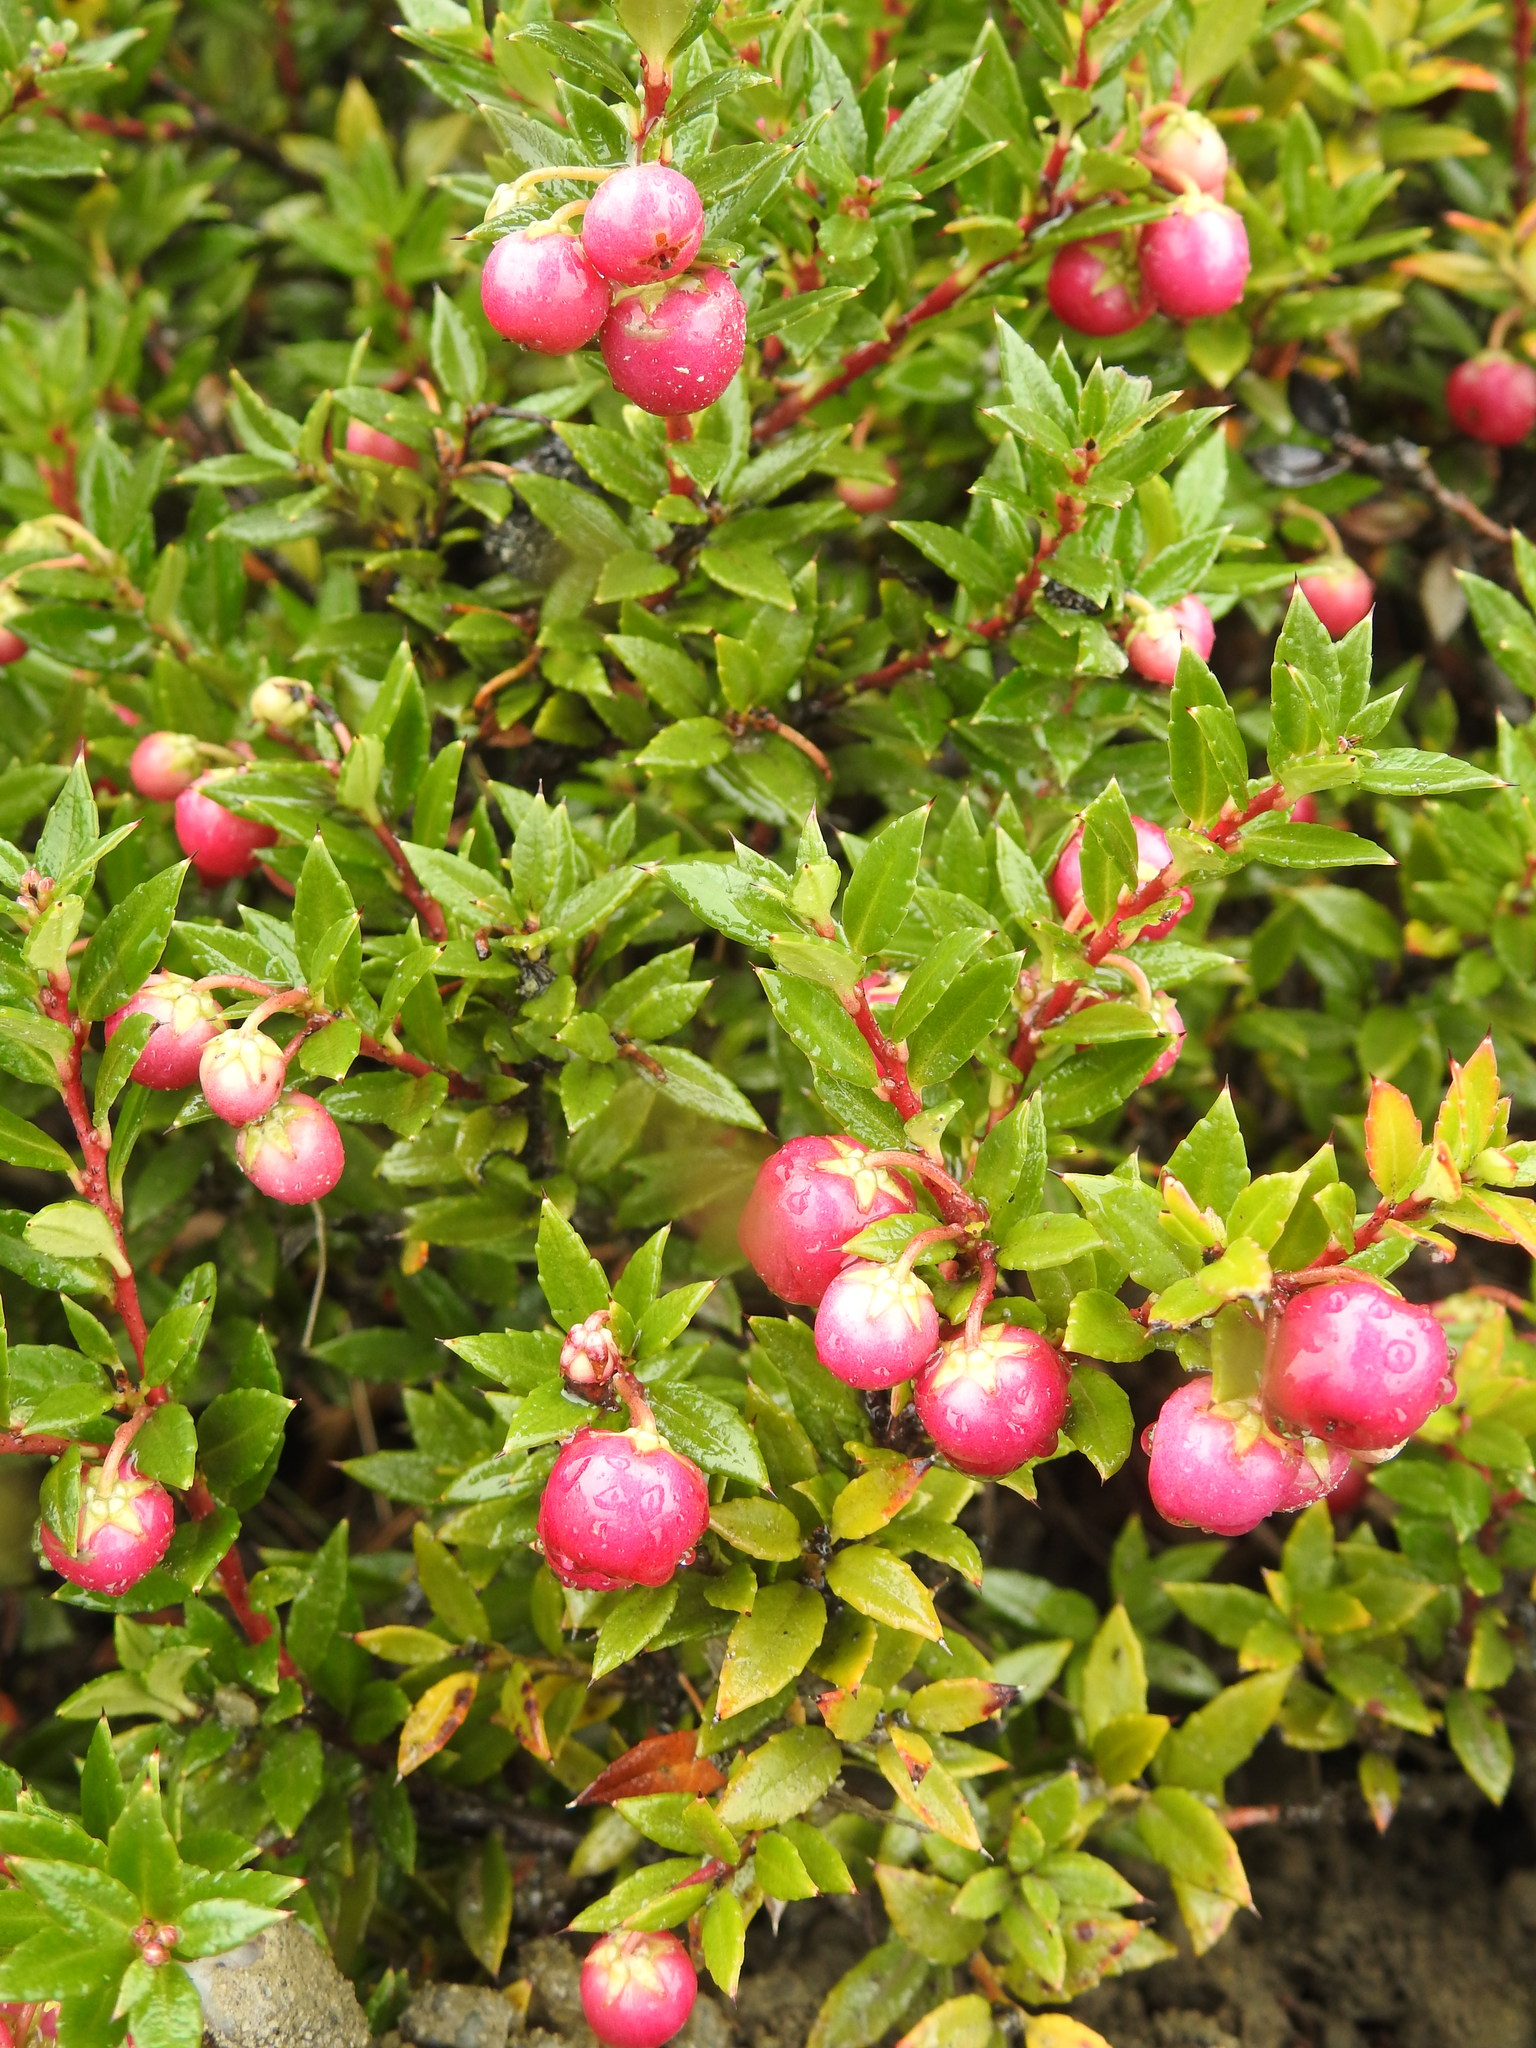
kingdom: Plantae
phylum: Tracheophyta
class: Magnoliopsida
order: Ericales
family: Ericaceae
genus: Gaultheria
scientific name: Gaultheria mucronata
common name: Prickly heath
